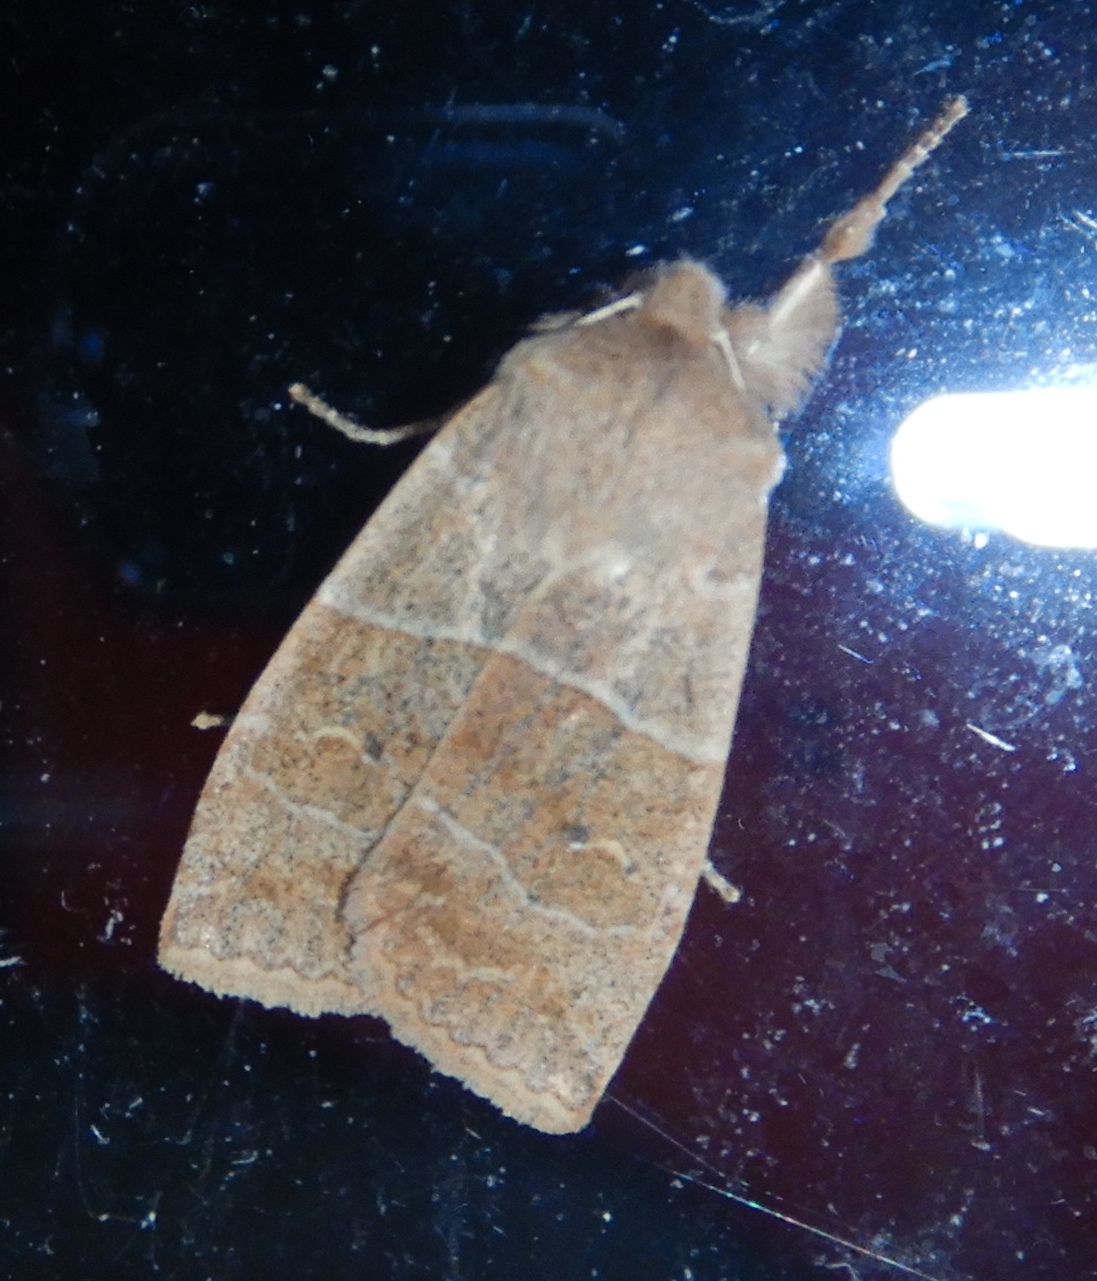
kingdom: Animalia
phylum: Arthropoda
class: Insecta
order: Lepidoptera
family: Noctuidae
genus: Eupsilia
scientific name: Eupsilia morrisoni
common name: Morrison's sallow
